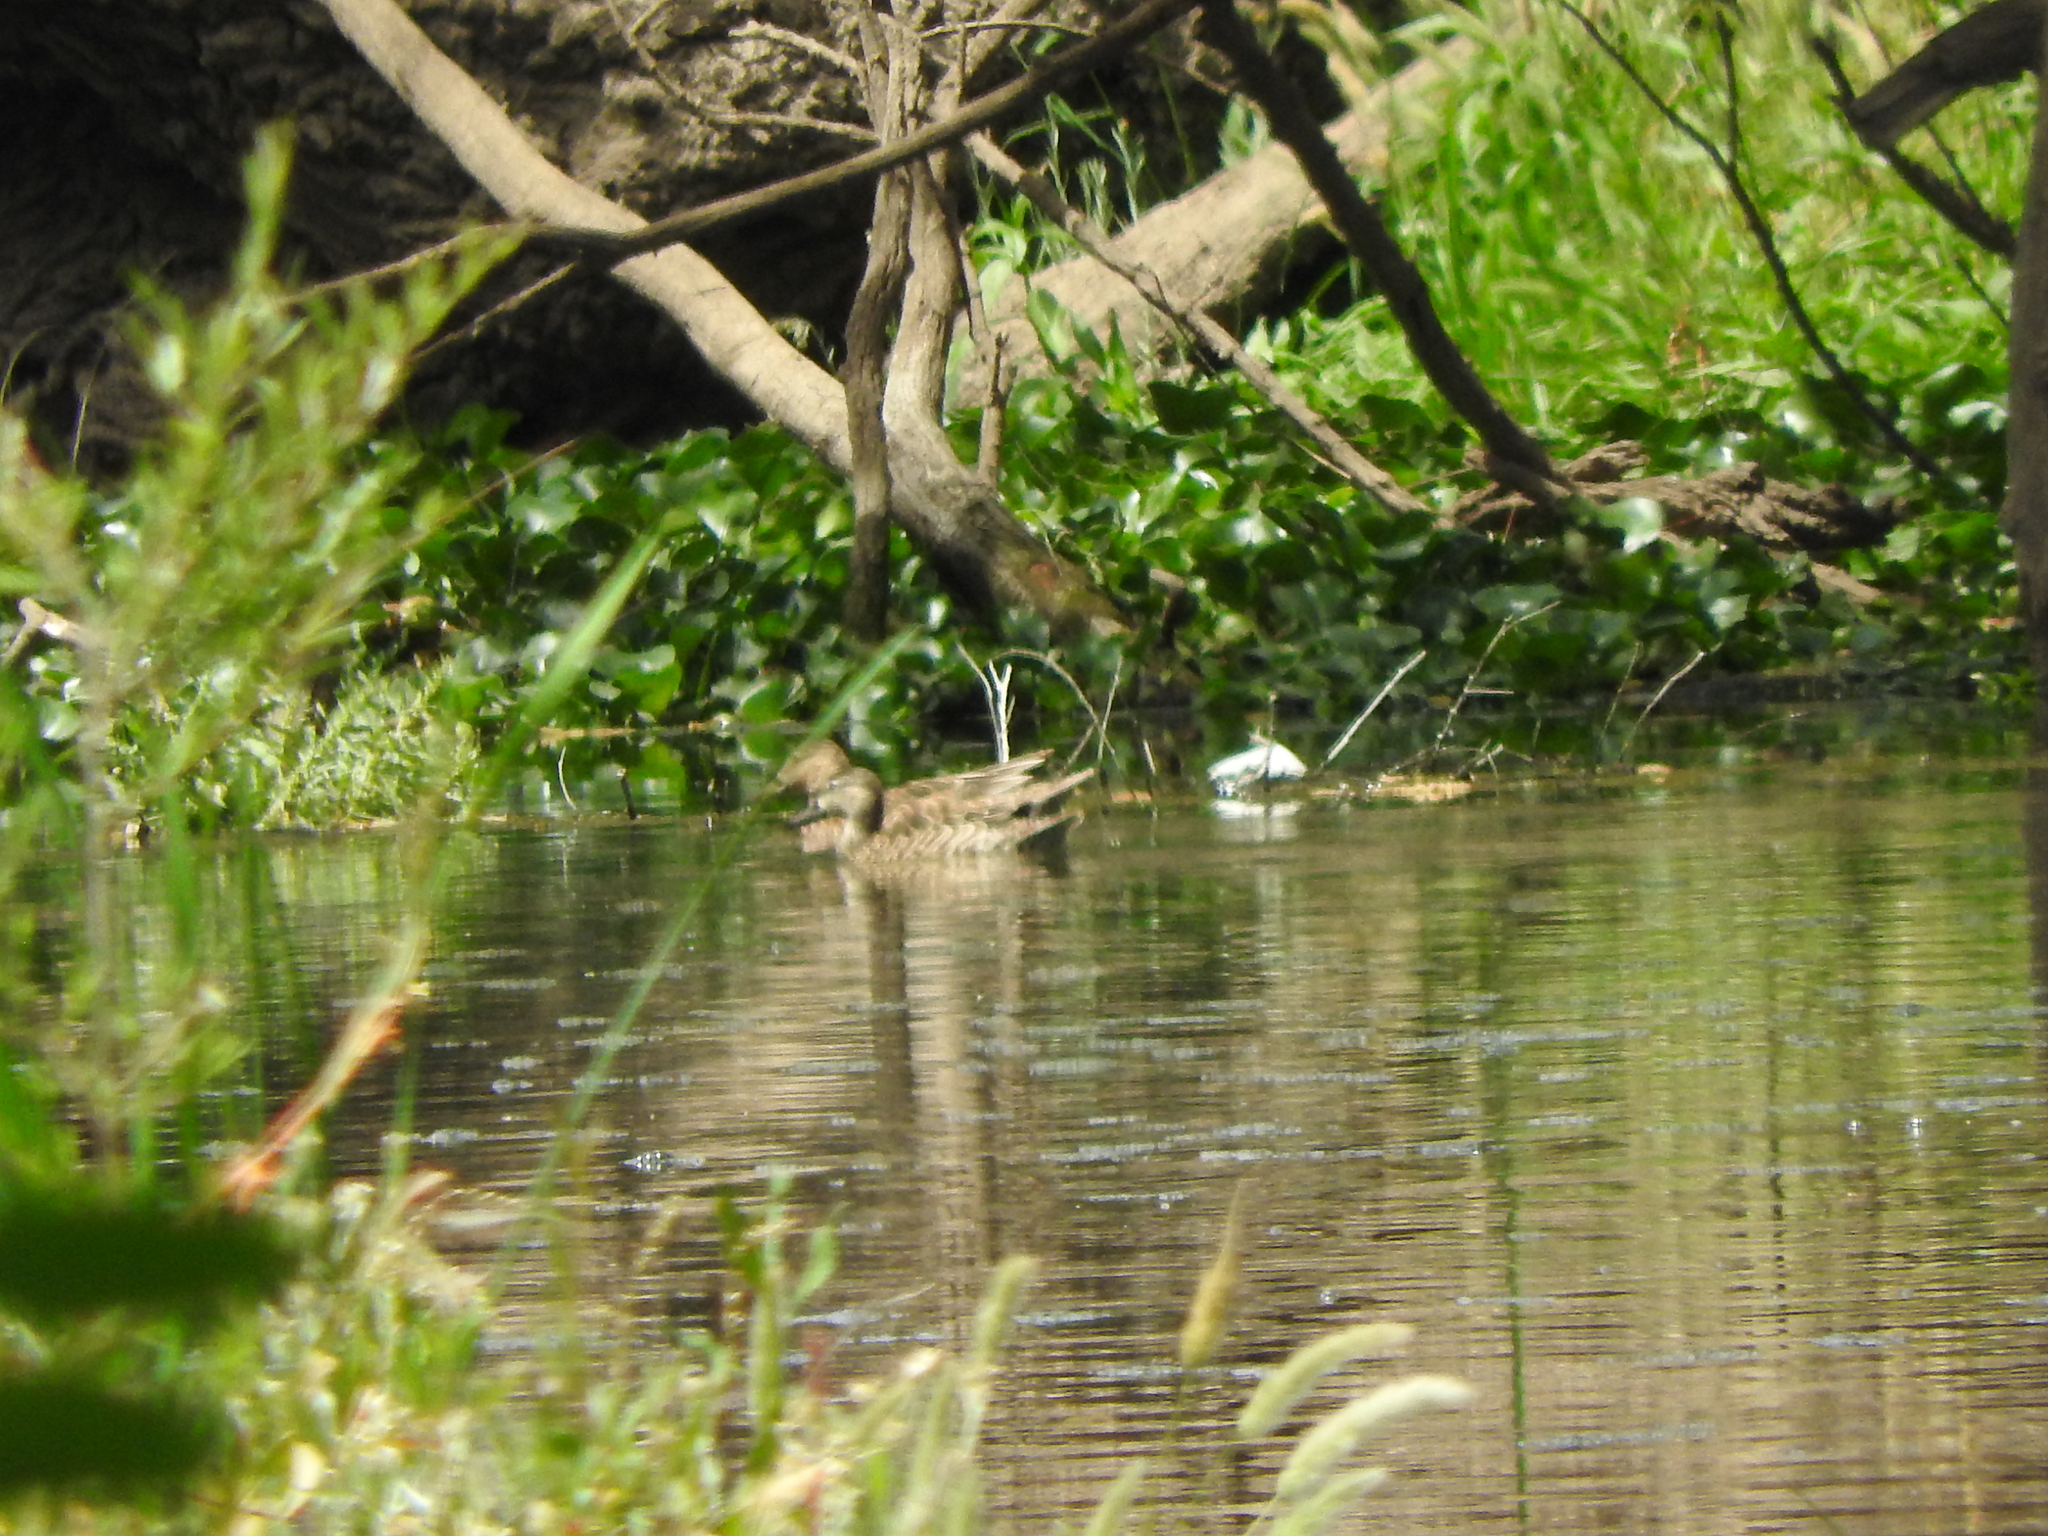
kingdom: Animalia
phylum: Chordata
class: Aves
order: Anseriformes
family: Anatidae
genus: Spatula
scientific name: Spatula discors
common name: Blue-winged teal
